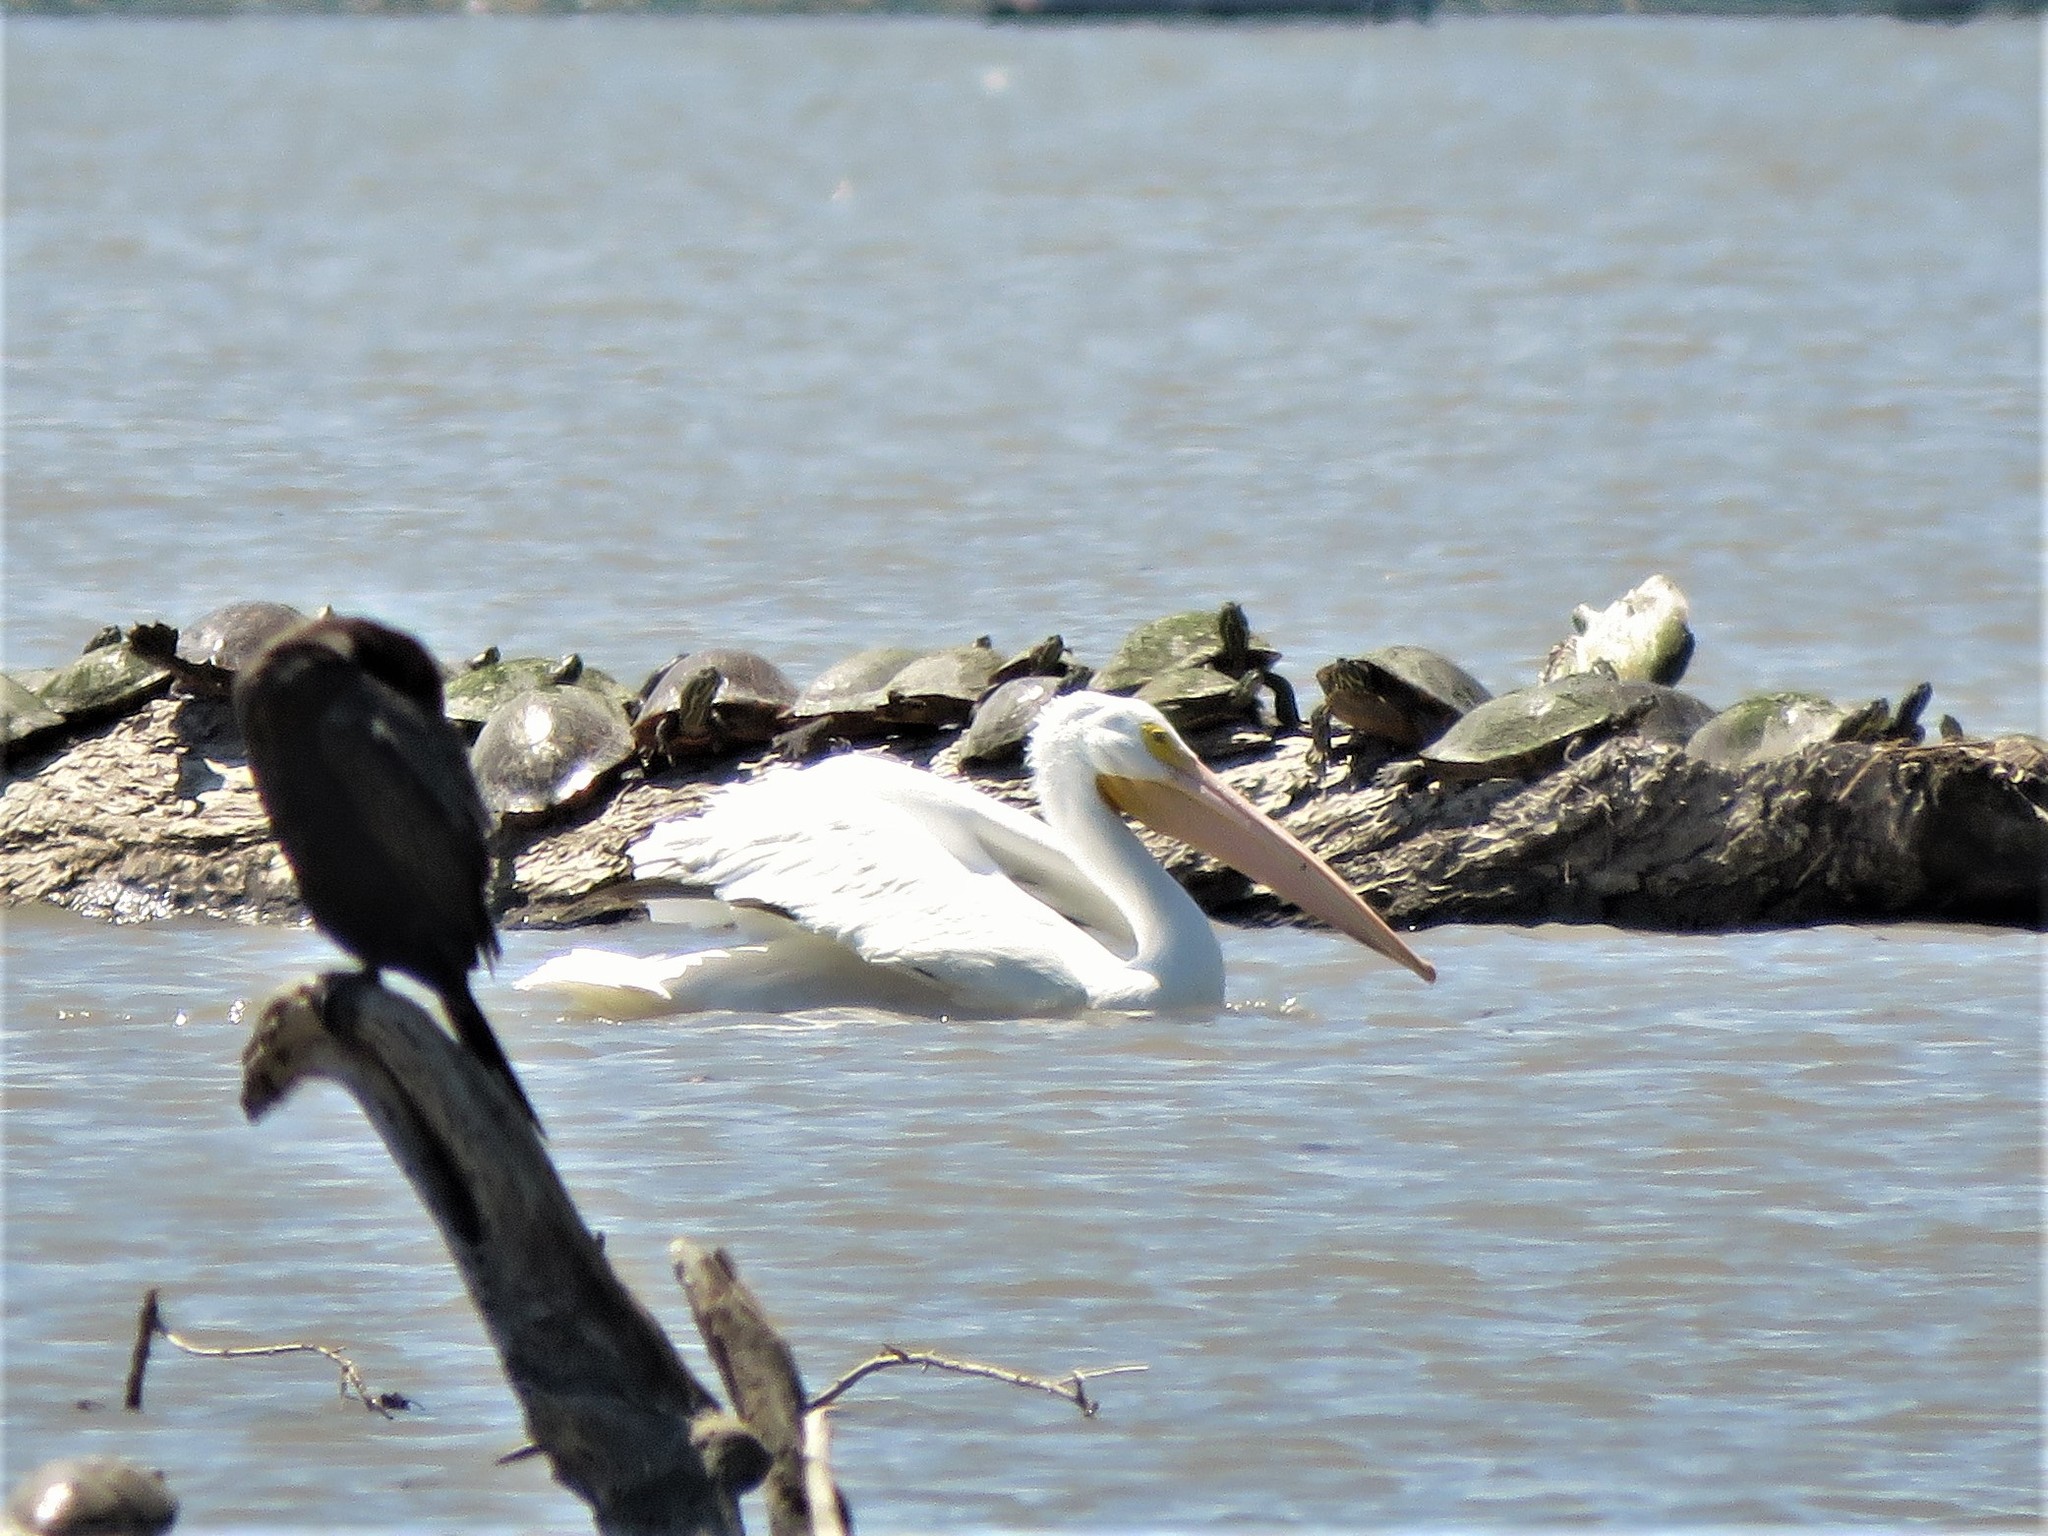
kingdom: Animalia
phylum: Chordata
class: Aves
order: Pelecaniformes
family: Pelecanidae
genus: Pelecanus
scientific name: Pelecanus erythrorhynchos
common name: American white pelican
